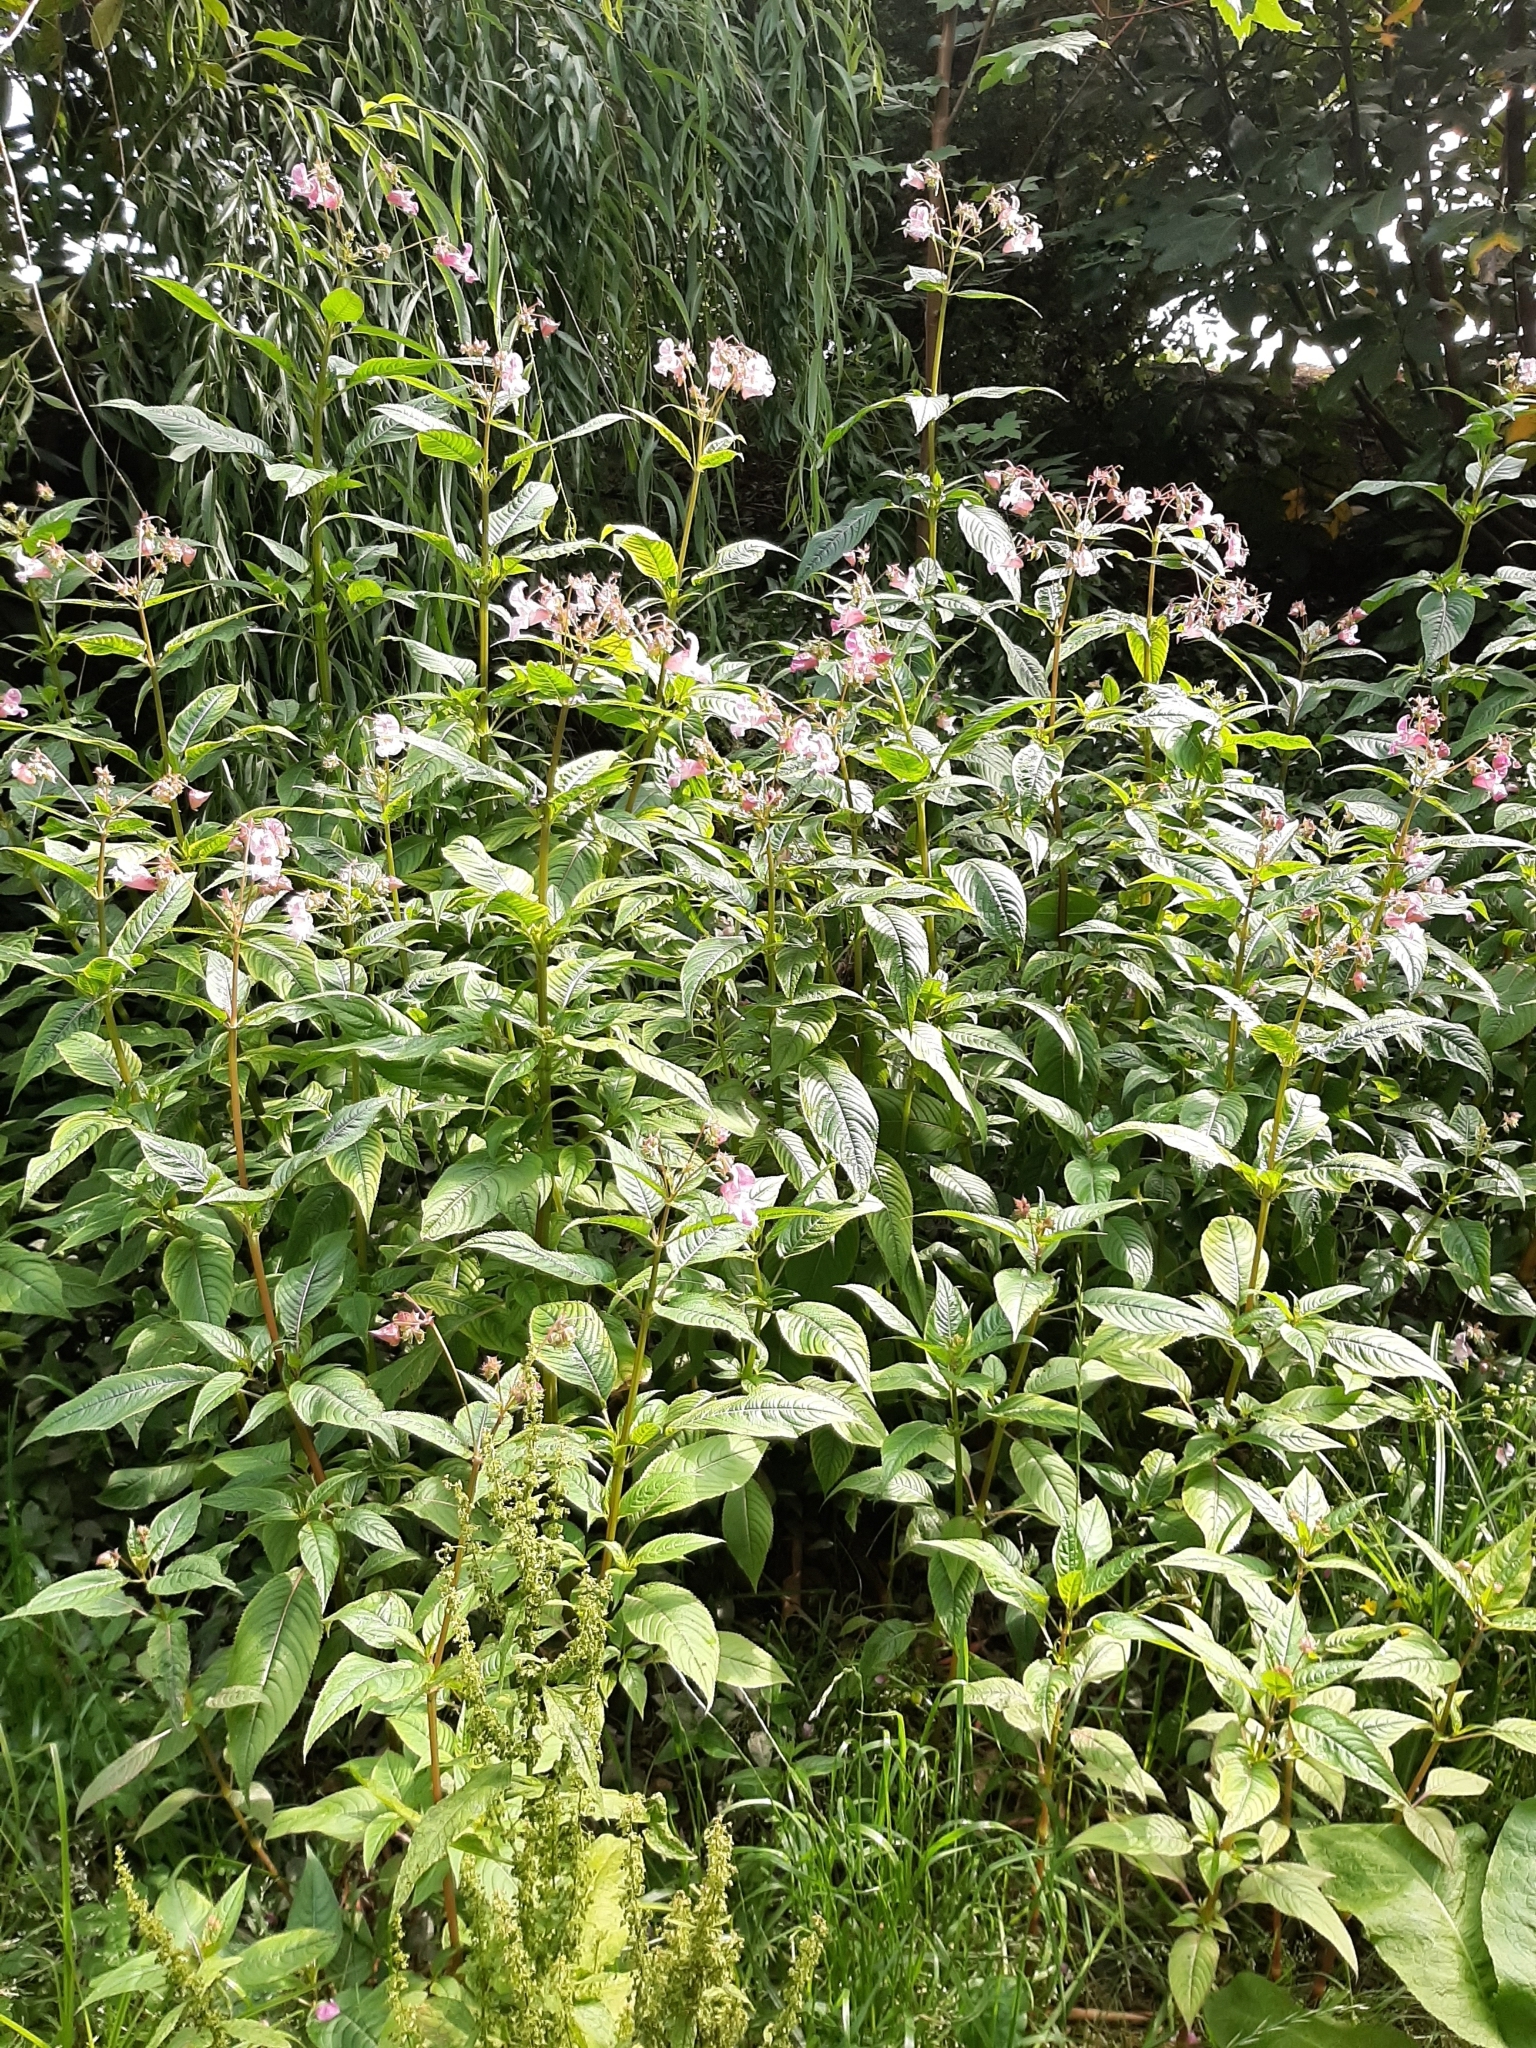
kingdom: Plantae
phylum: Tracheophyta
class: Magnoliopsida
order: Ericales
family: Balsaminaceae
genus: Impatiens
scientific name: Impatiens glandulifera
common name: Himalayan balsam
